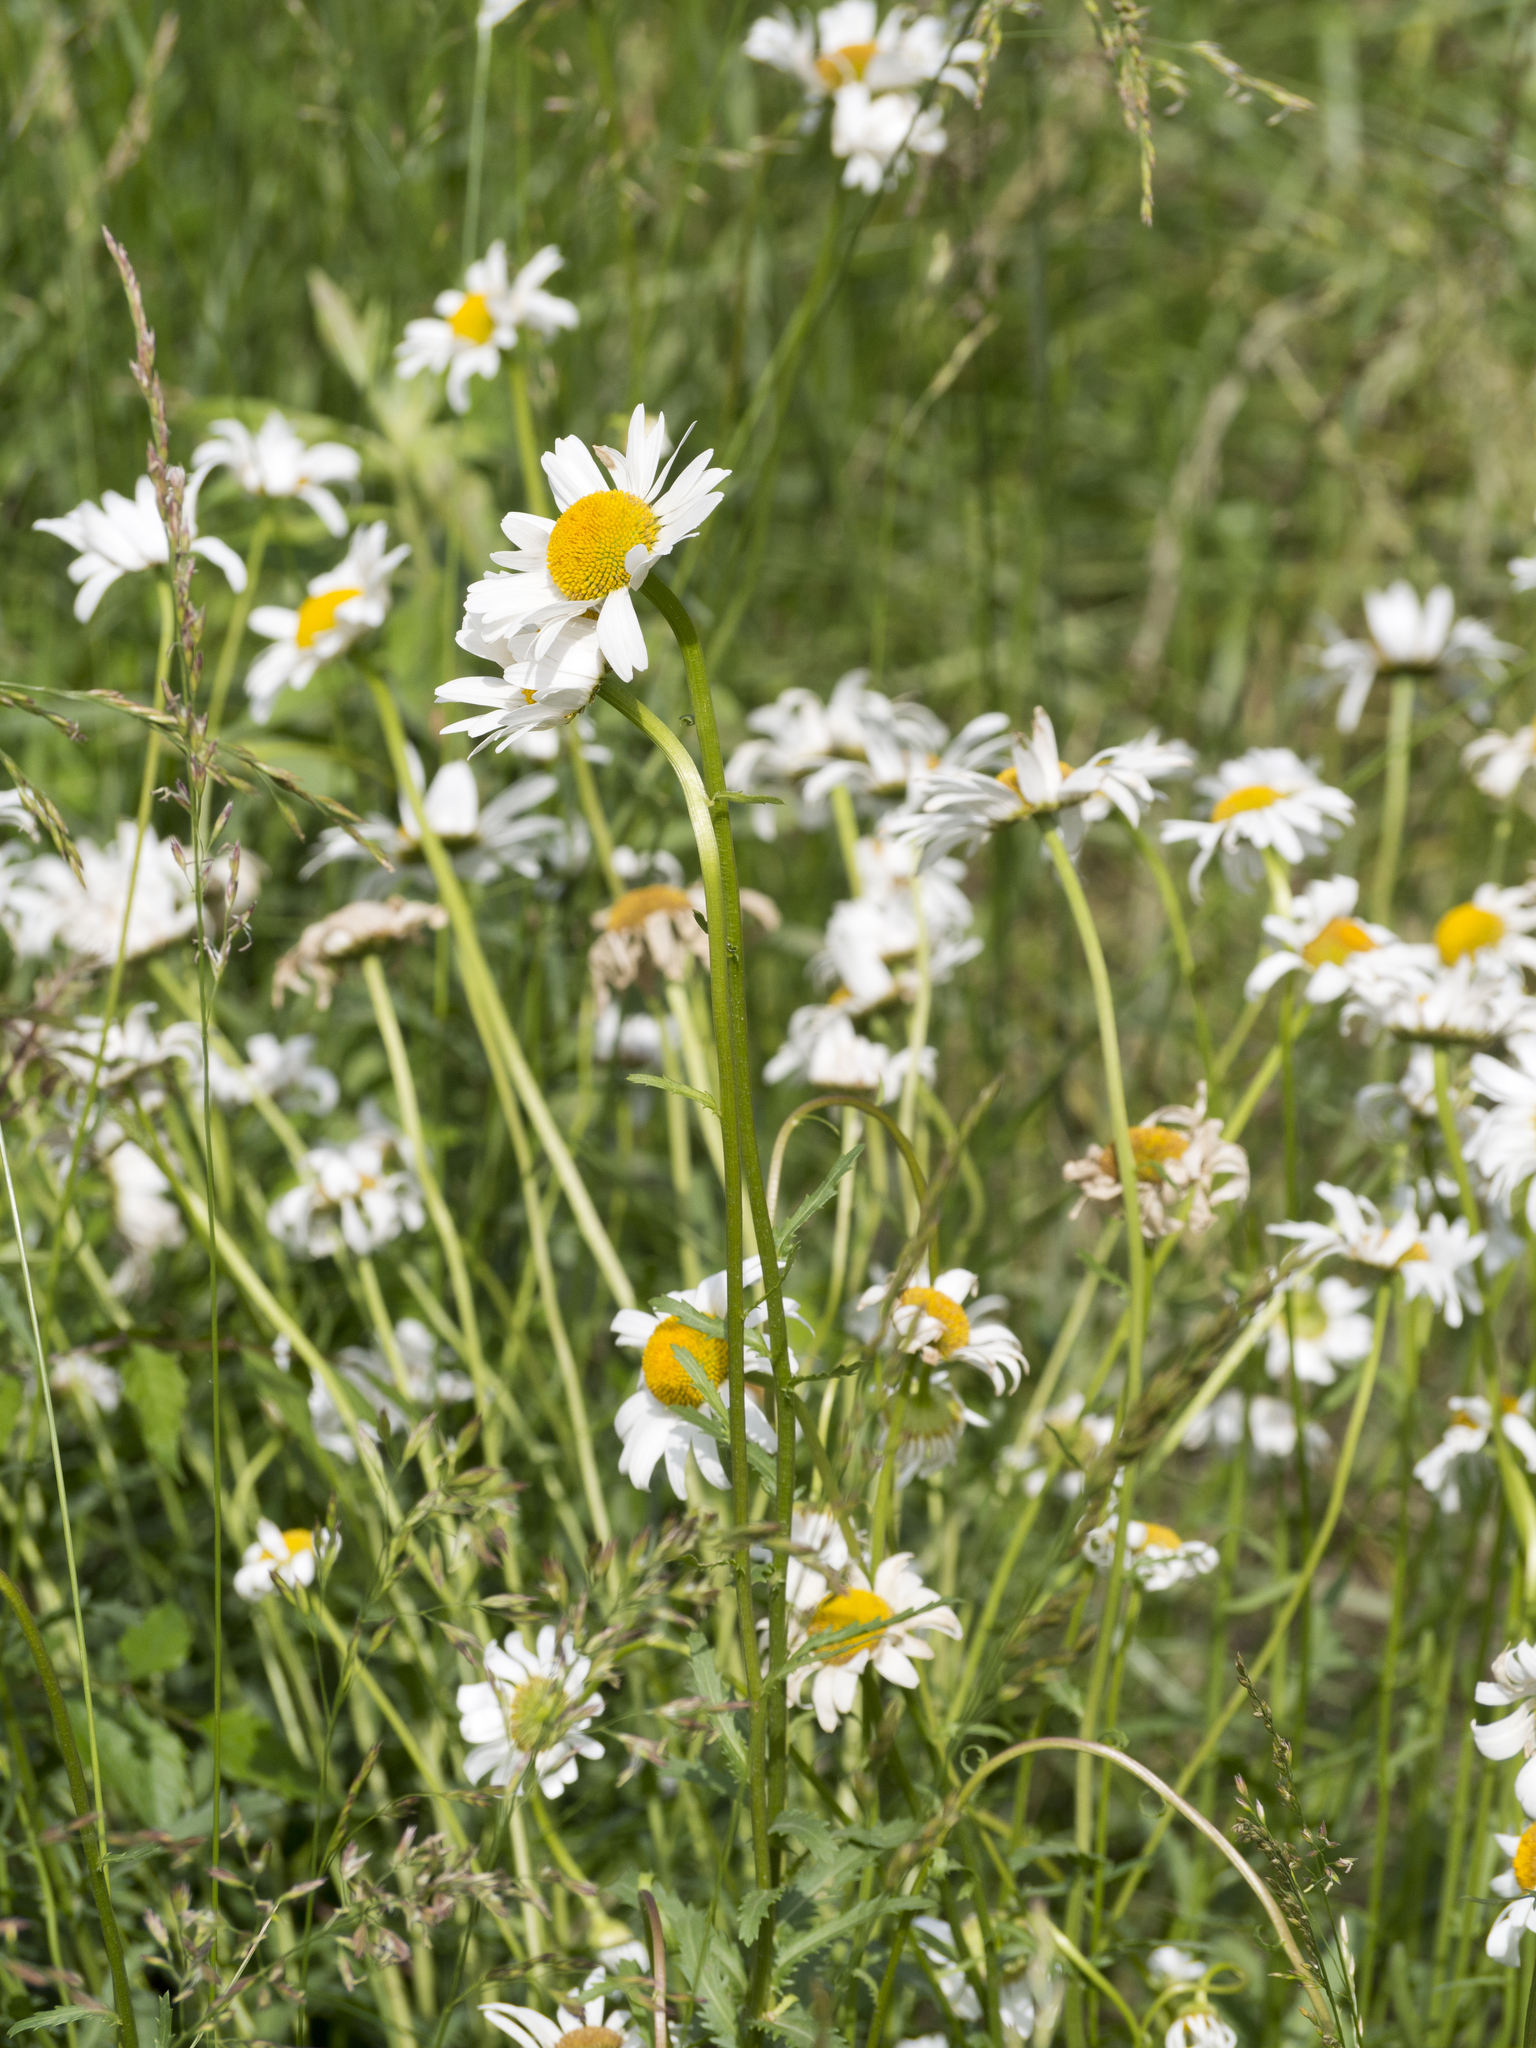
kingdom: Plantae
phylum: Tracheophyta
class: Magnoliopsida
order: Asterales
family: Asteraceae
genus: Leucanthemum
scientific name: Leucanthemum vulgare
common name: Oxeye daisy
